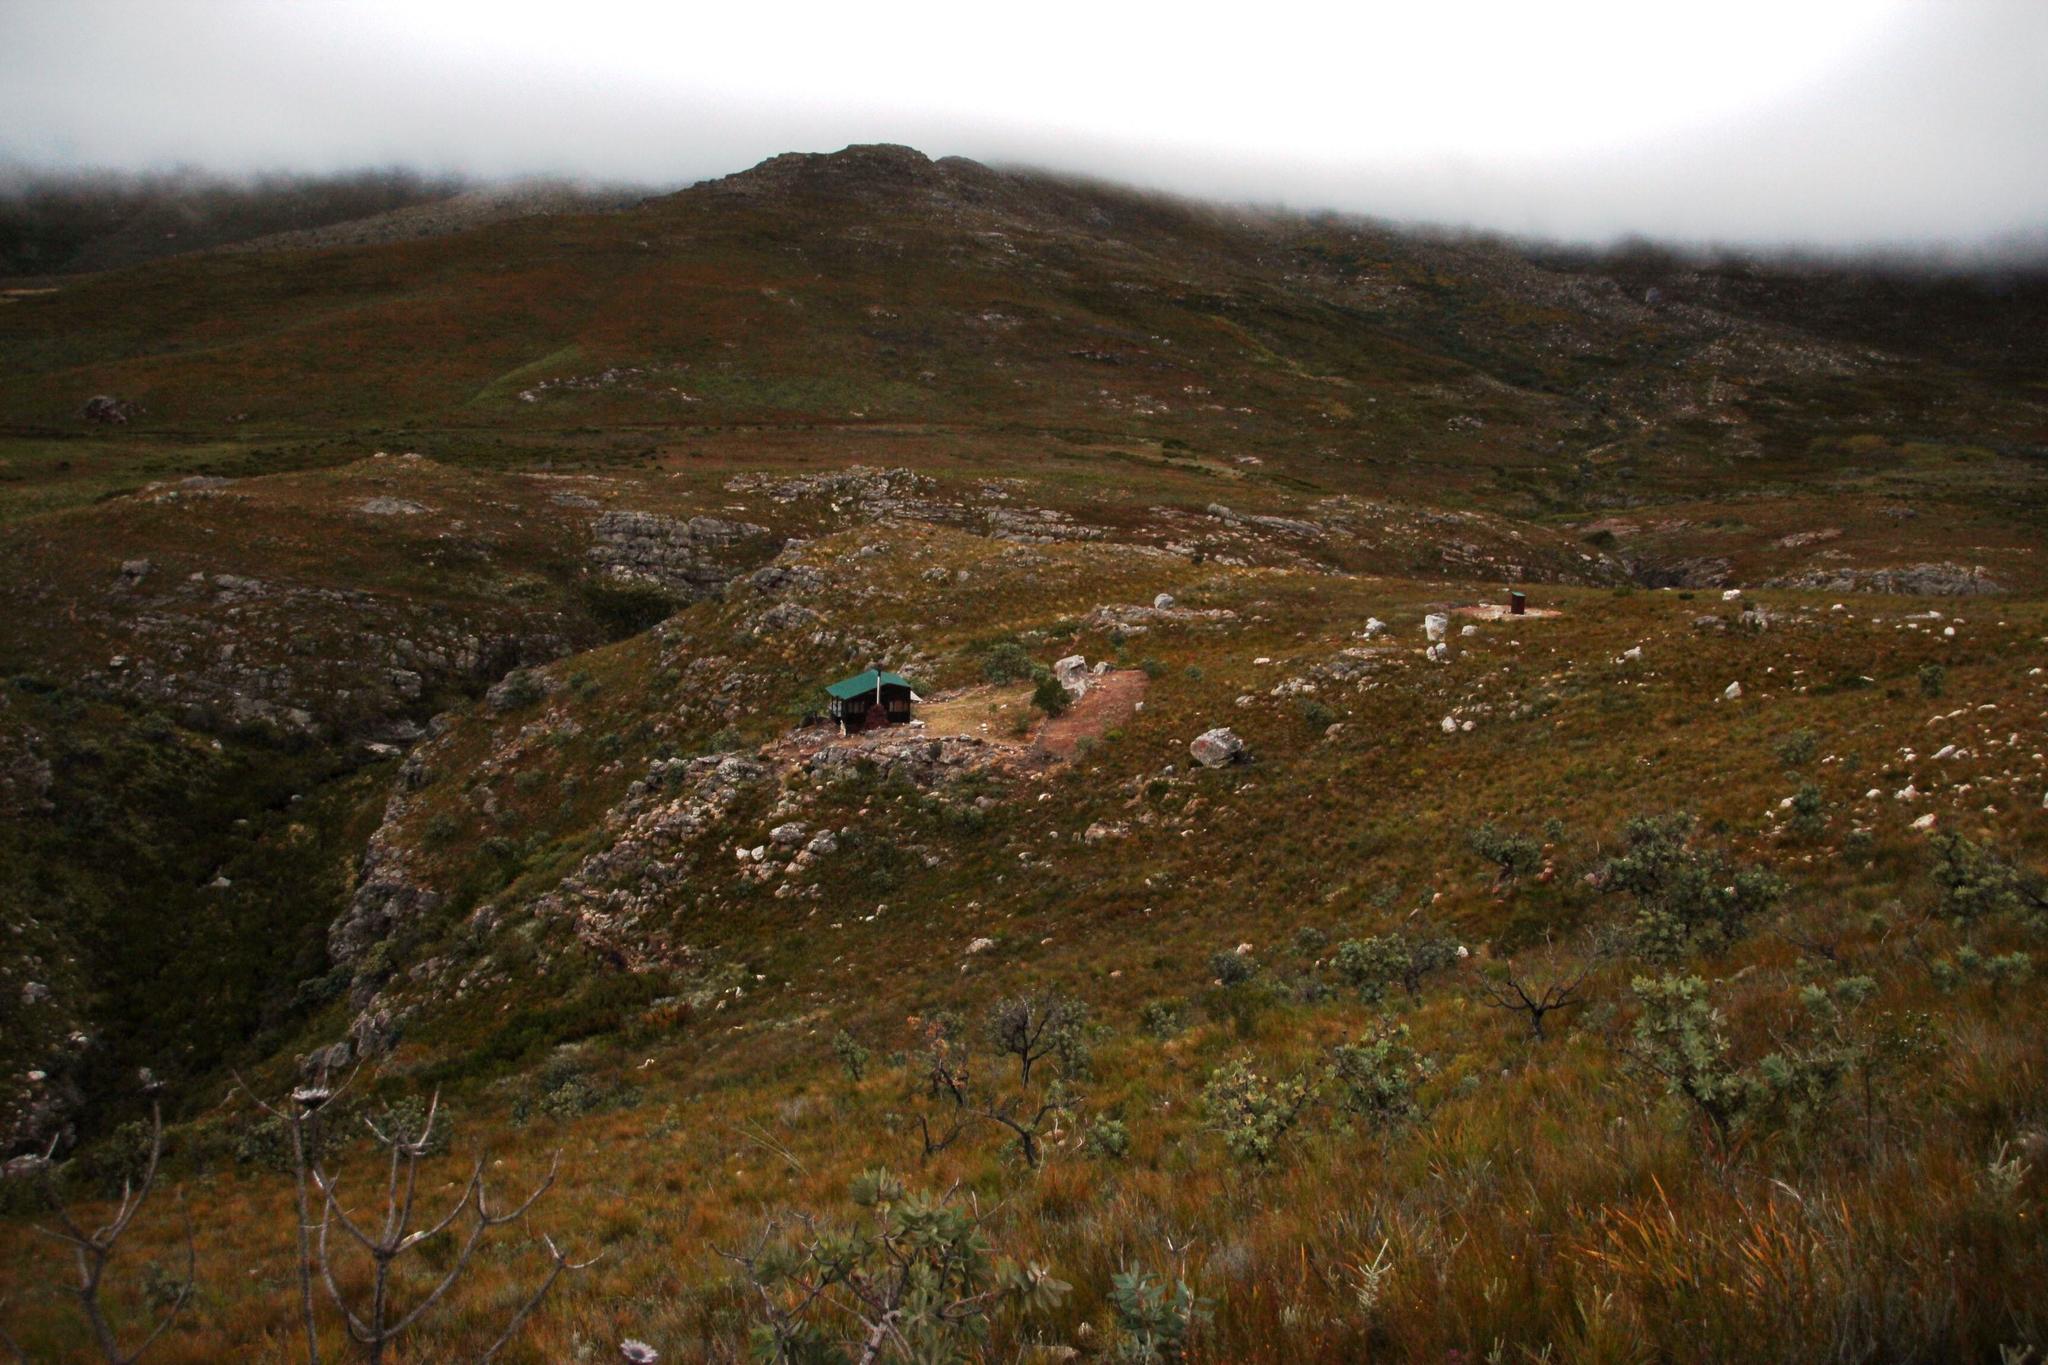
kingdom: Plantae
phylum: Tracheophyta
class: Magnoliopsida
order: Proteales
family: Proteaceae
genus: Protea
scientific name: Protea nitida
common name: Tree protea
